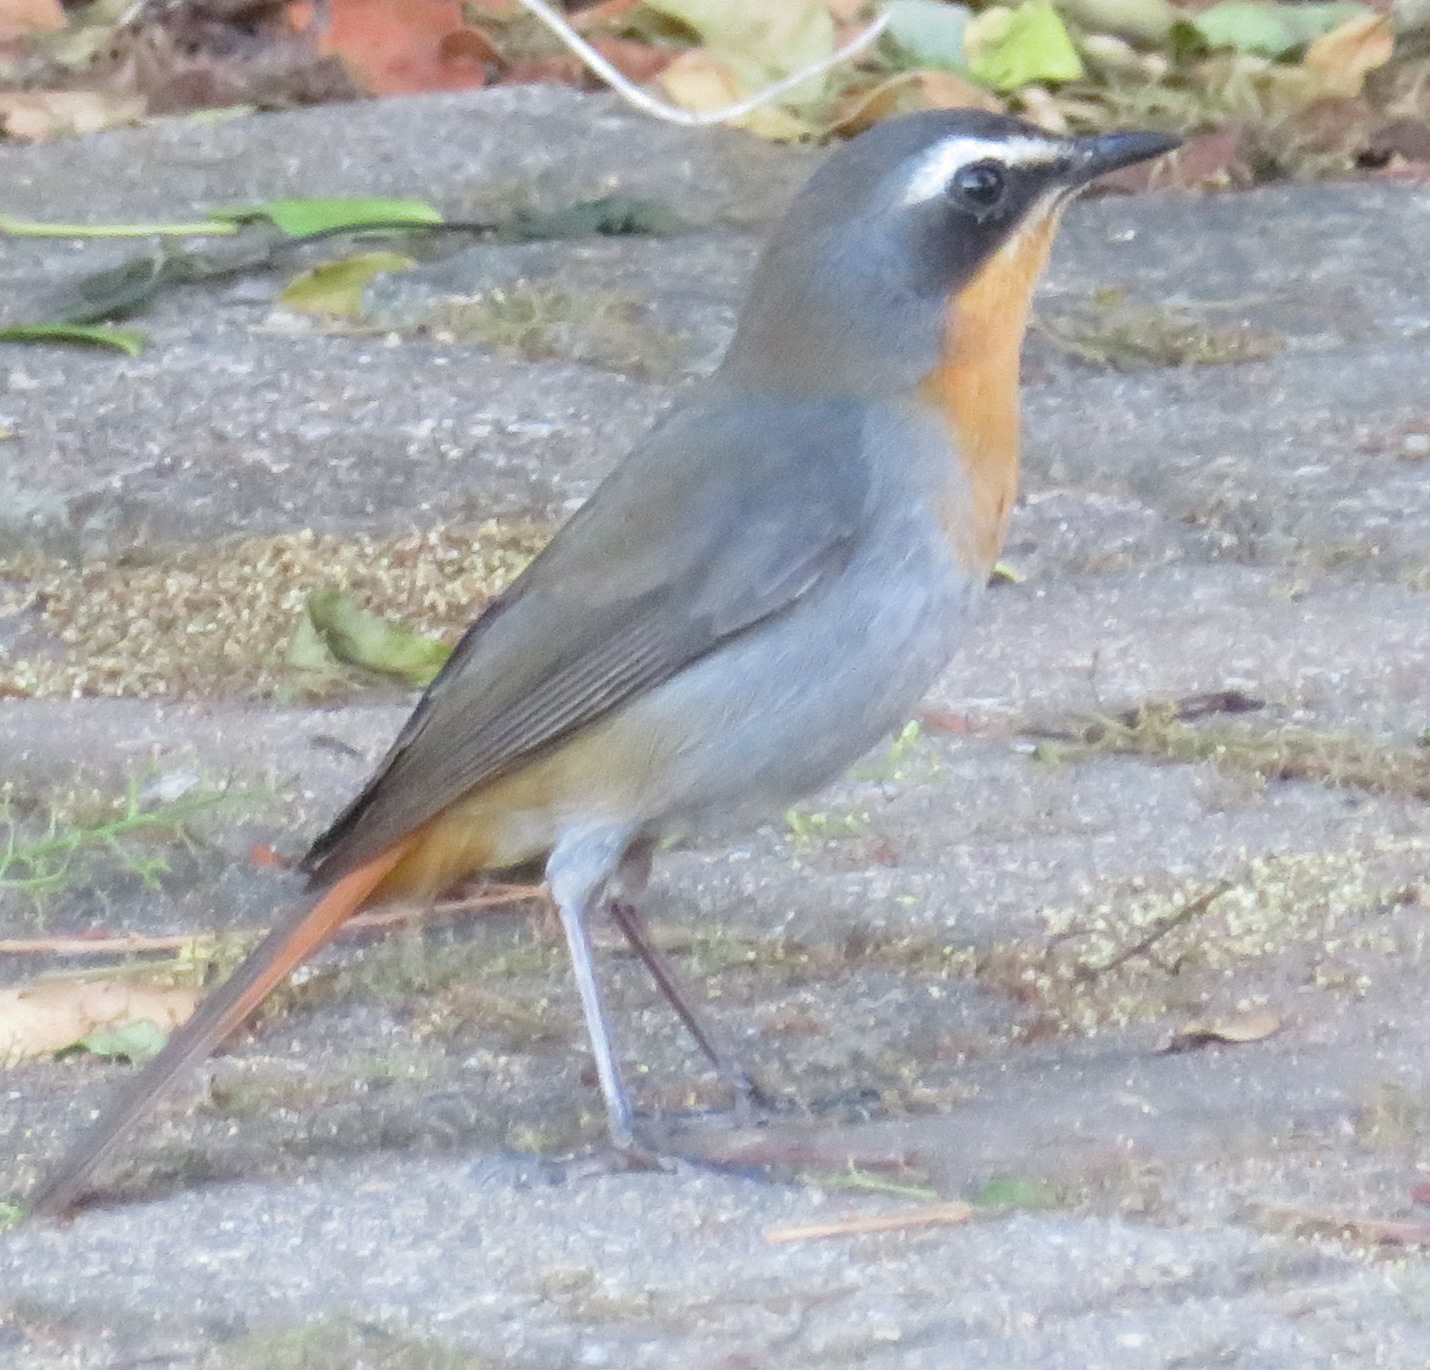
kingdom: Animalia
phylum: Chordata
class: Aves
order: Passeriformes
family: Muscicapidae
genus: Cossypha
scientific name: Cossypha caffra
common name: Cape robin-chat
